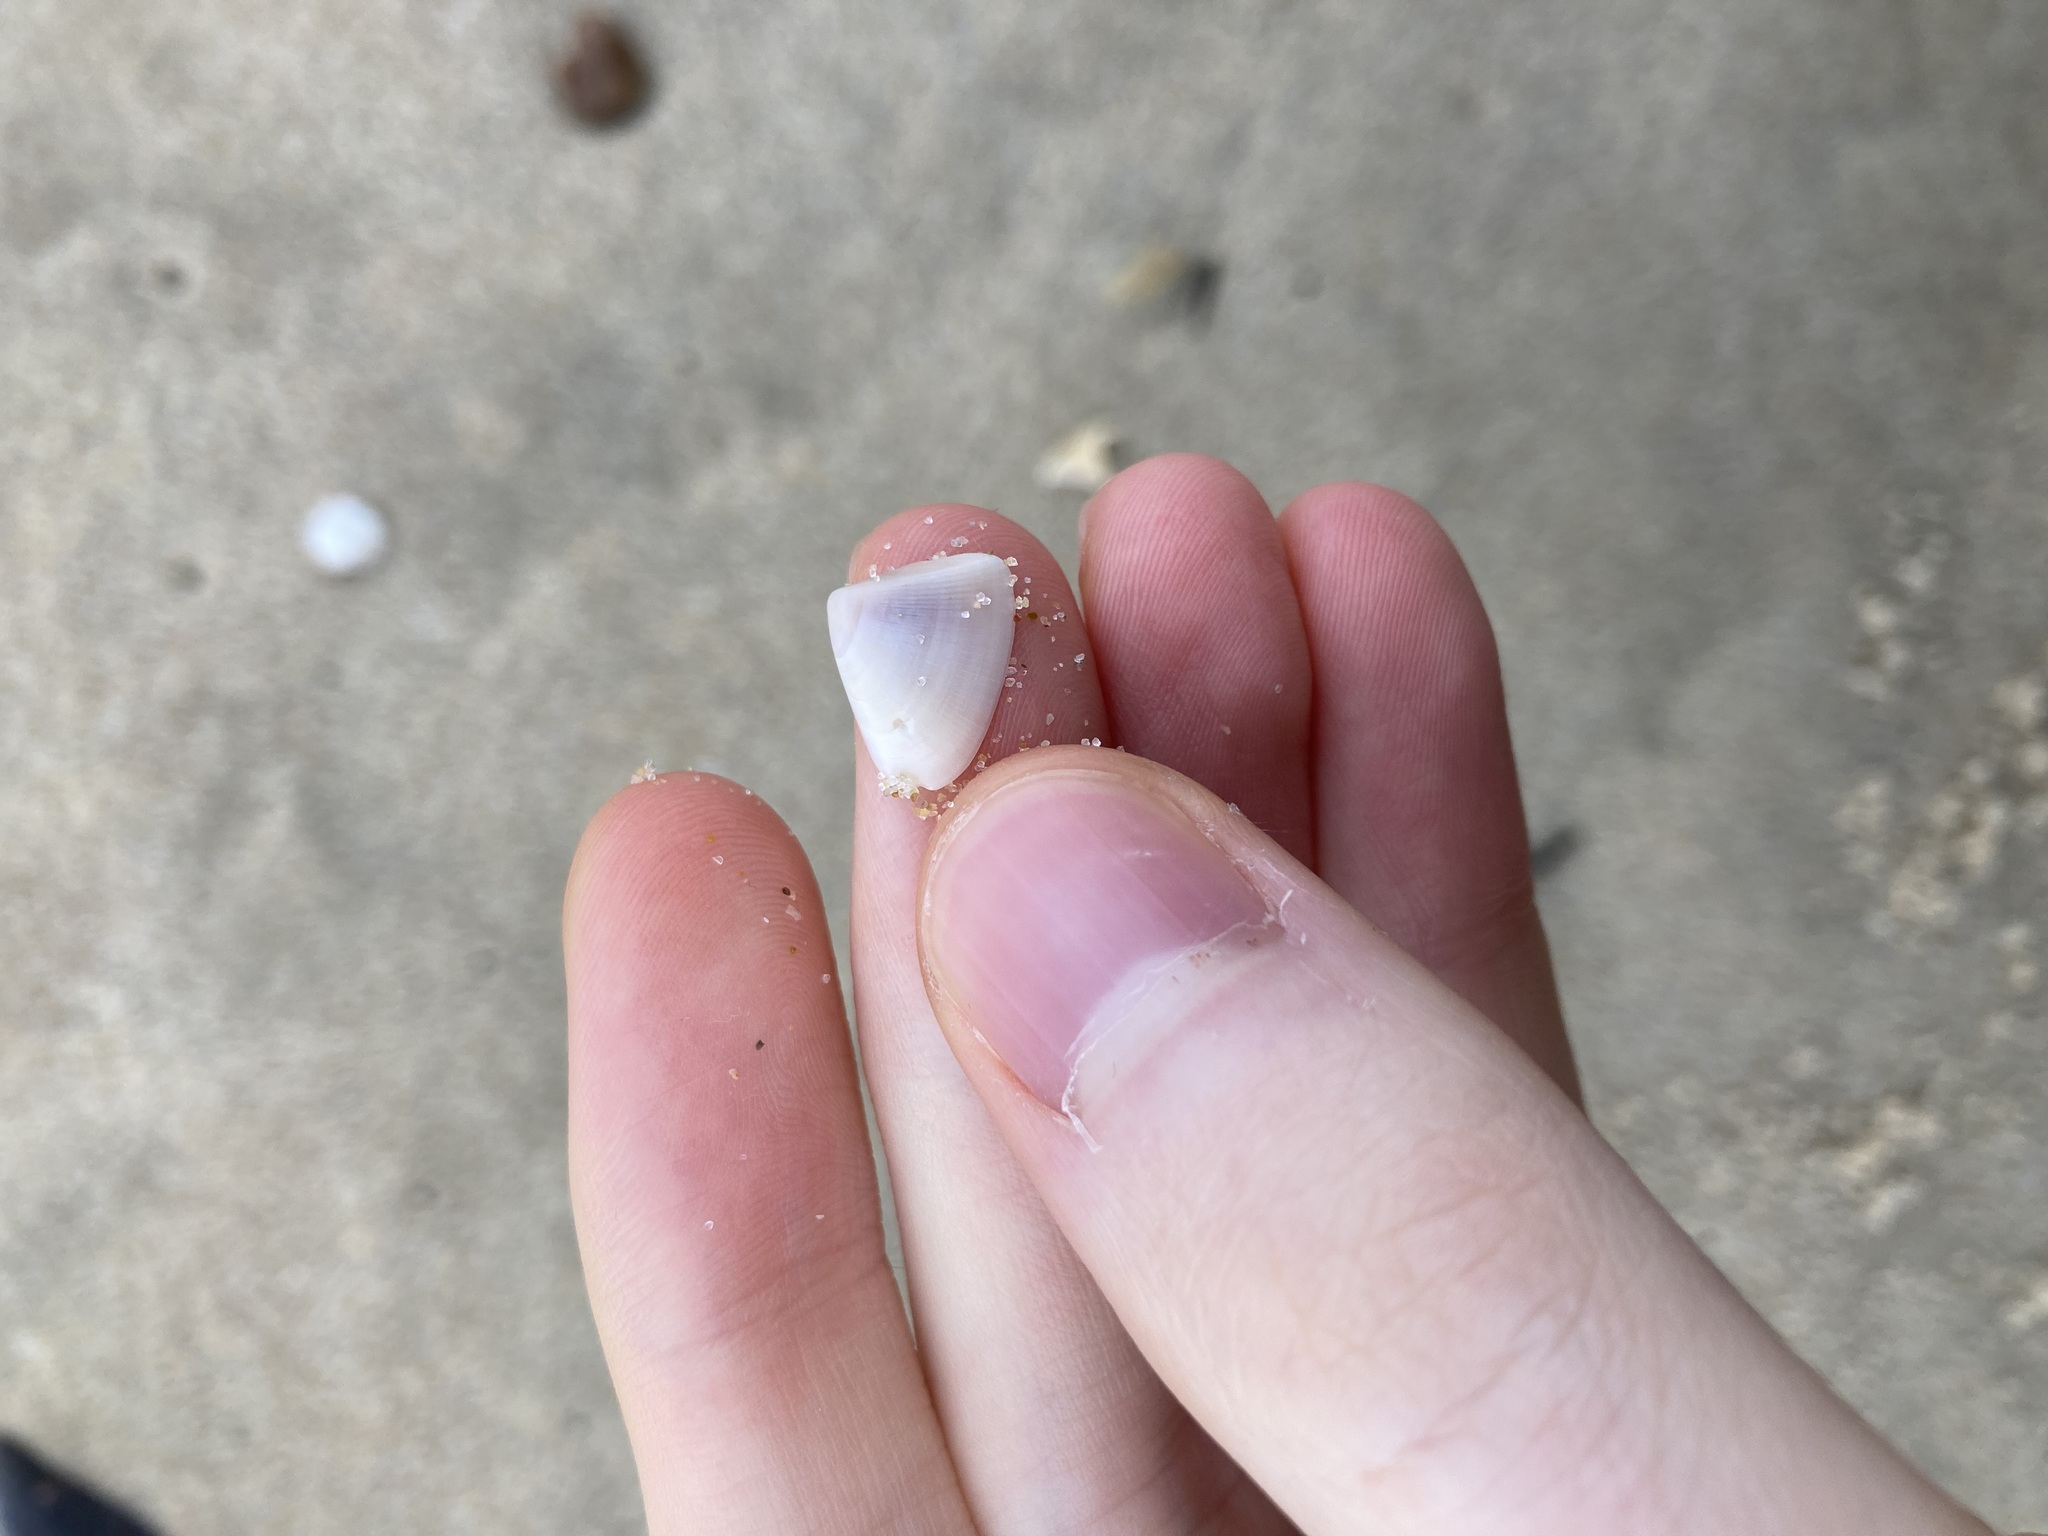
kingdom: Animalia
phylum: Mollusca
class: Bivalvia
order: Cardiida
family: Donacidae
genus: Donax
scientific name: Donax brazieri
